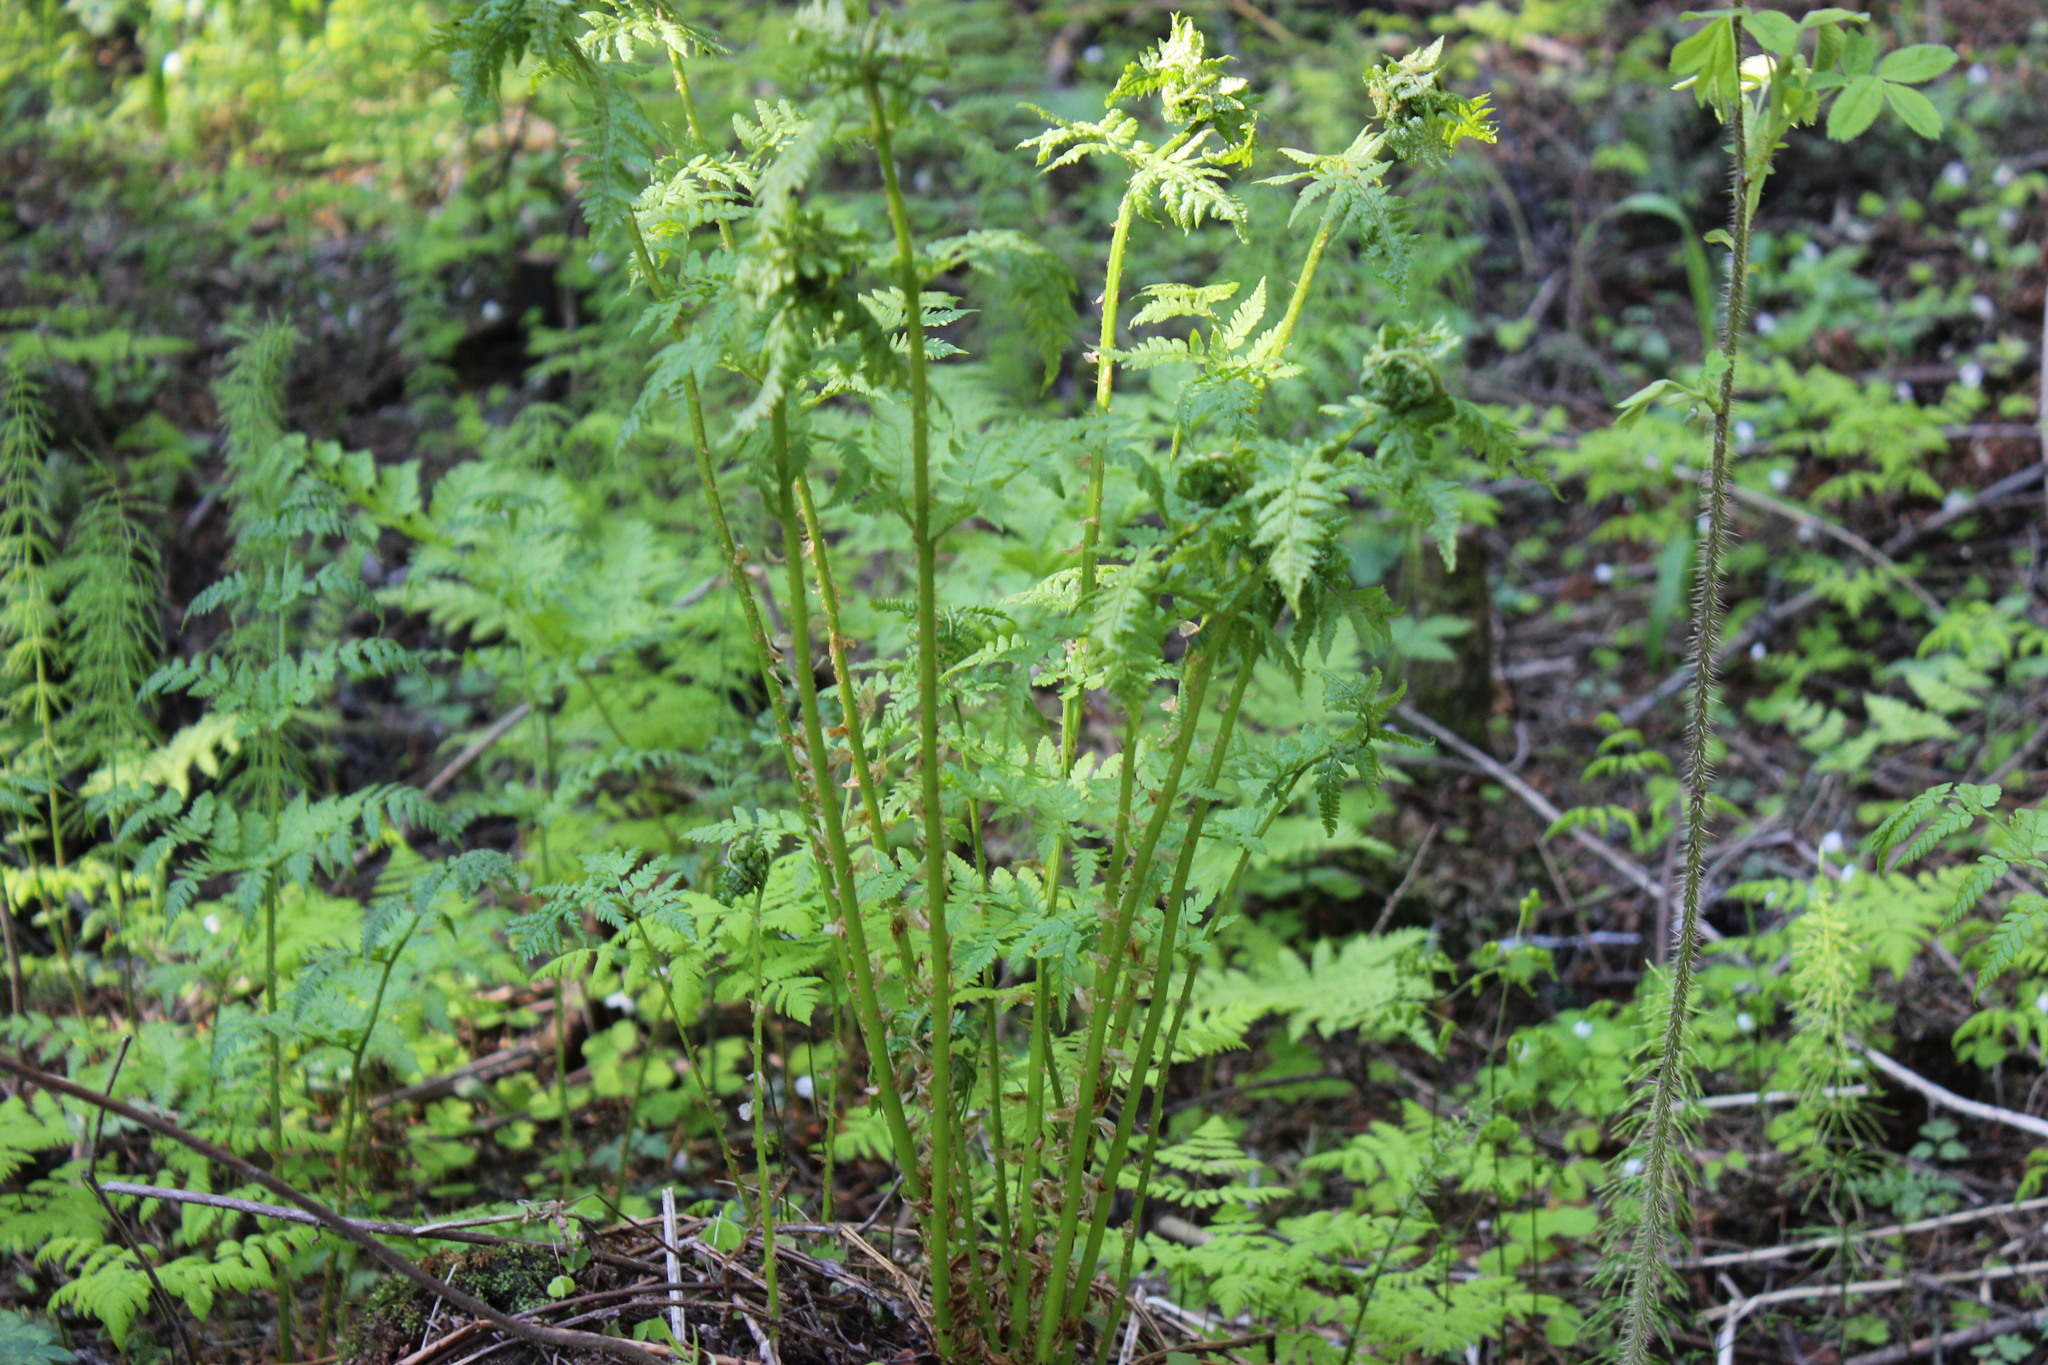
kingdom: Plantae
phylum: Tracheophyta
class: Polypodiopsida
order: Polypodiales
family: Dryopteridaceae
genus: Dryopteris
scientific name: Dryopteris expansa
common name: Northern buckler fern
